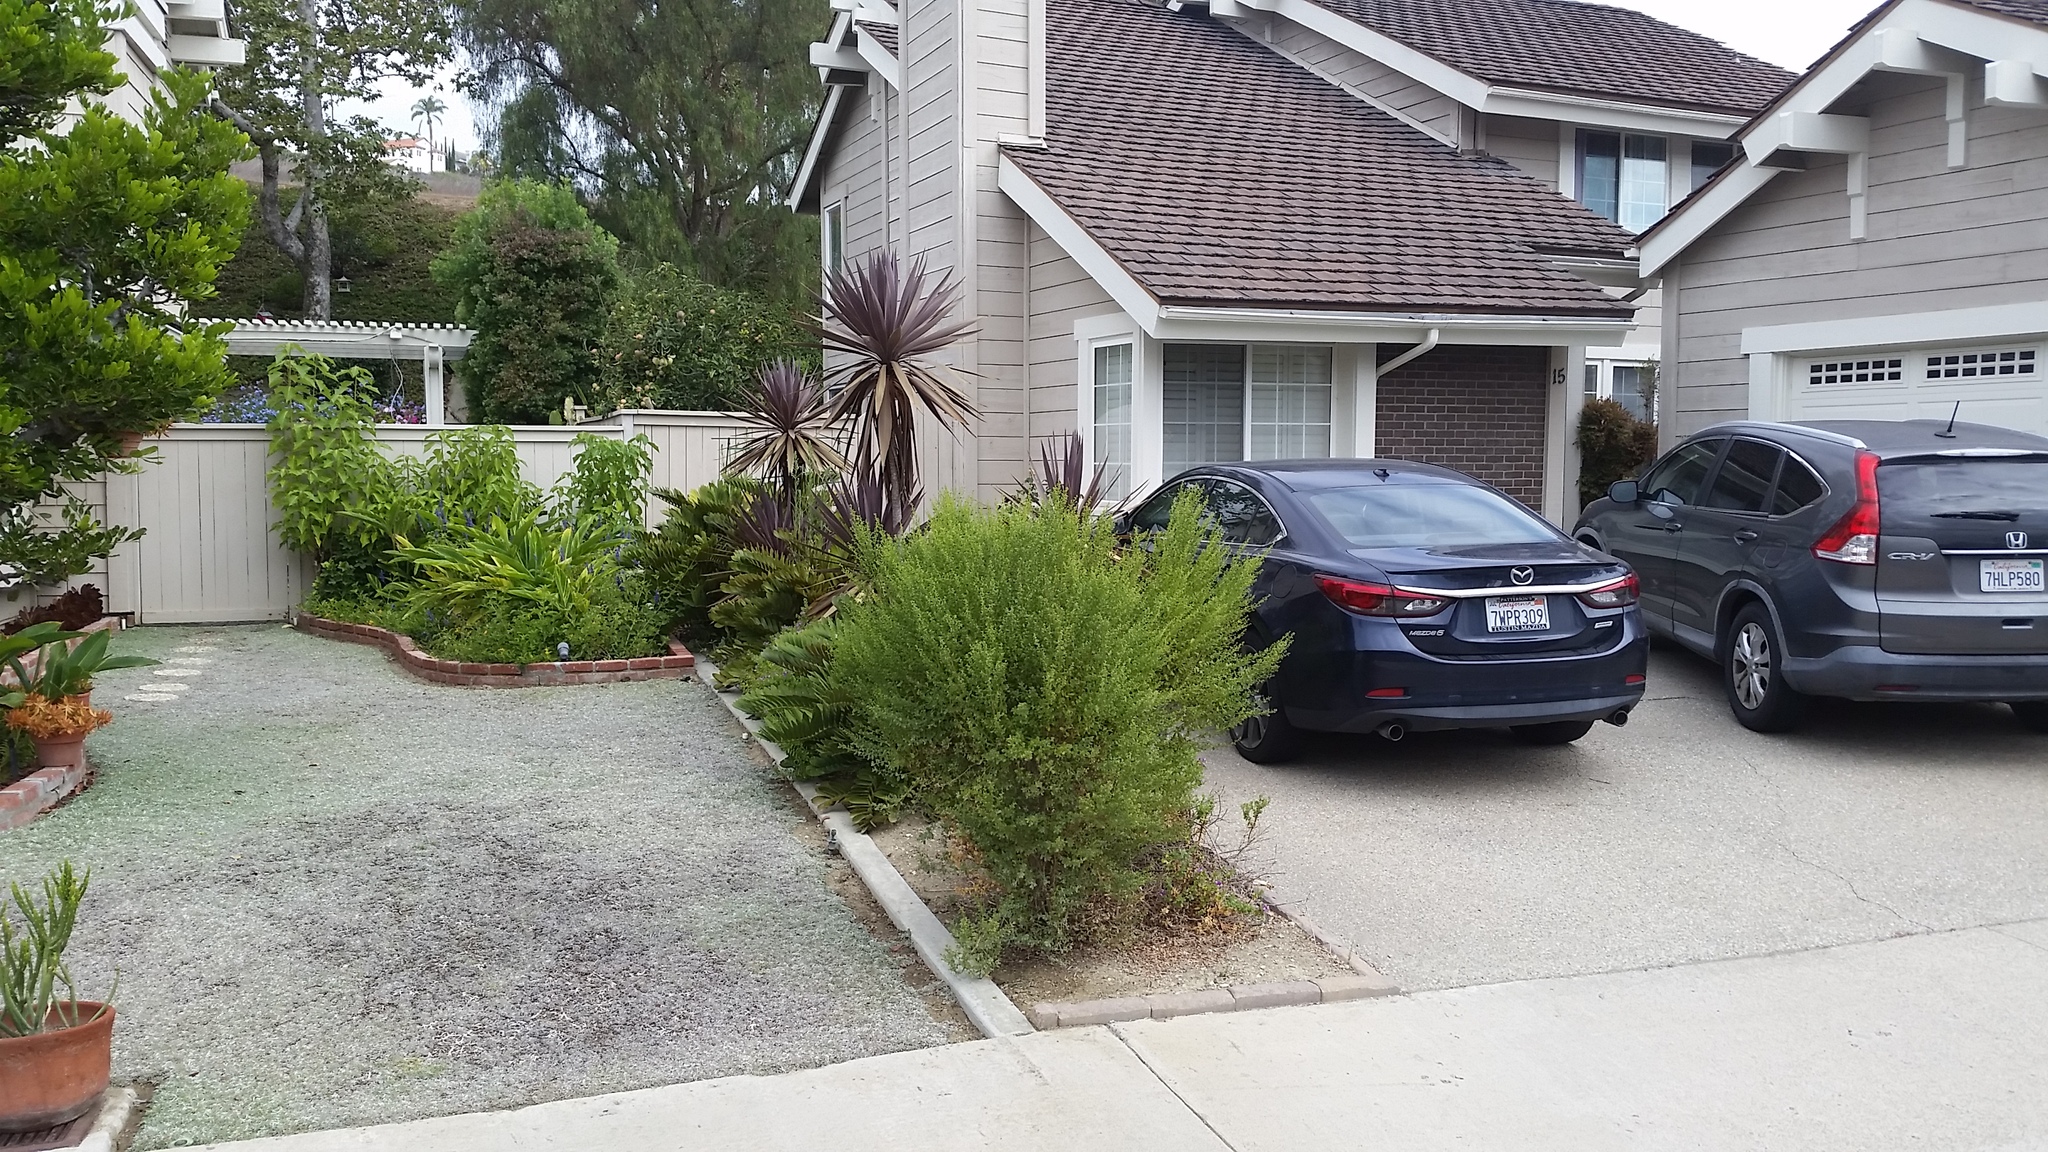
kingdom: Plantae
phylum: Tracheophyta
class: Magnoliopsida
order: Asterales
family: Asteraceae
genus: Baccharis
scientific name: Baccharis pilularis
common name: Coyotebrush
